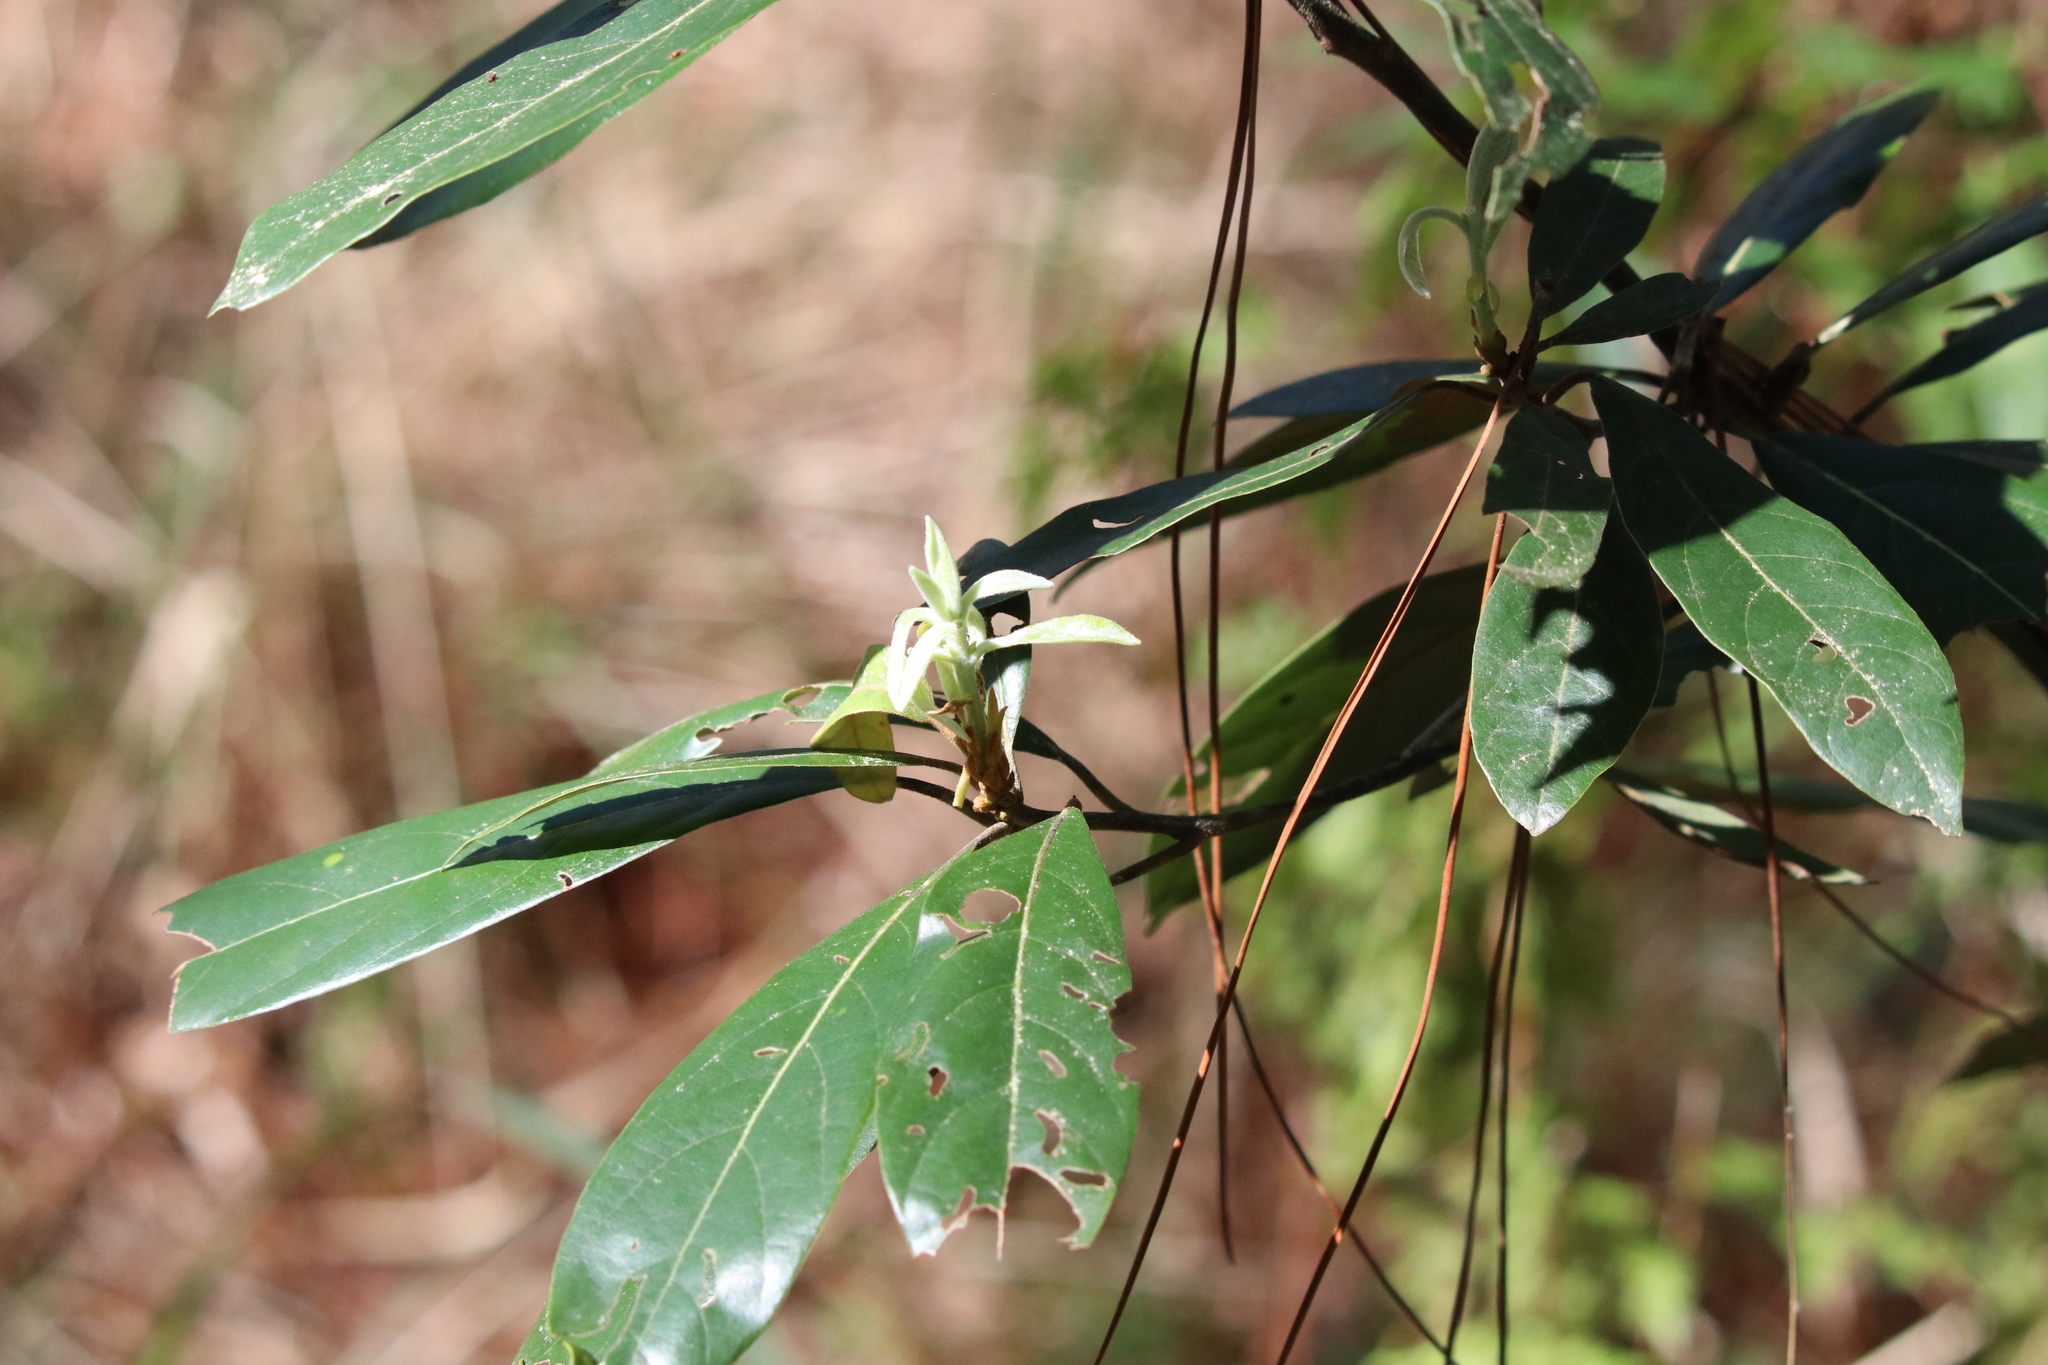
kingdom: Plantae
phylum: Tracheophyta
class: Magnoliopsida
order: Laurales
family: Lauraceae
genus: Persea
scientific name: Persea palustris
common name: Swampbay
